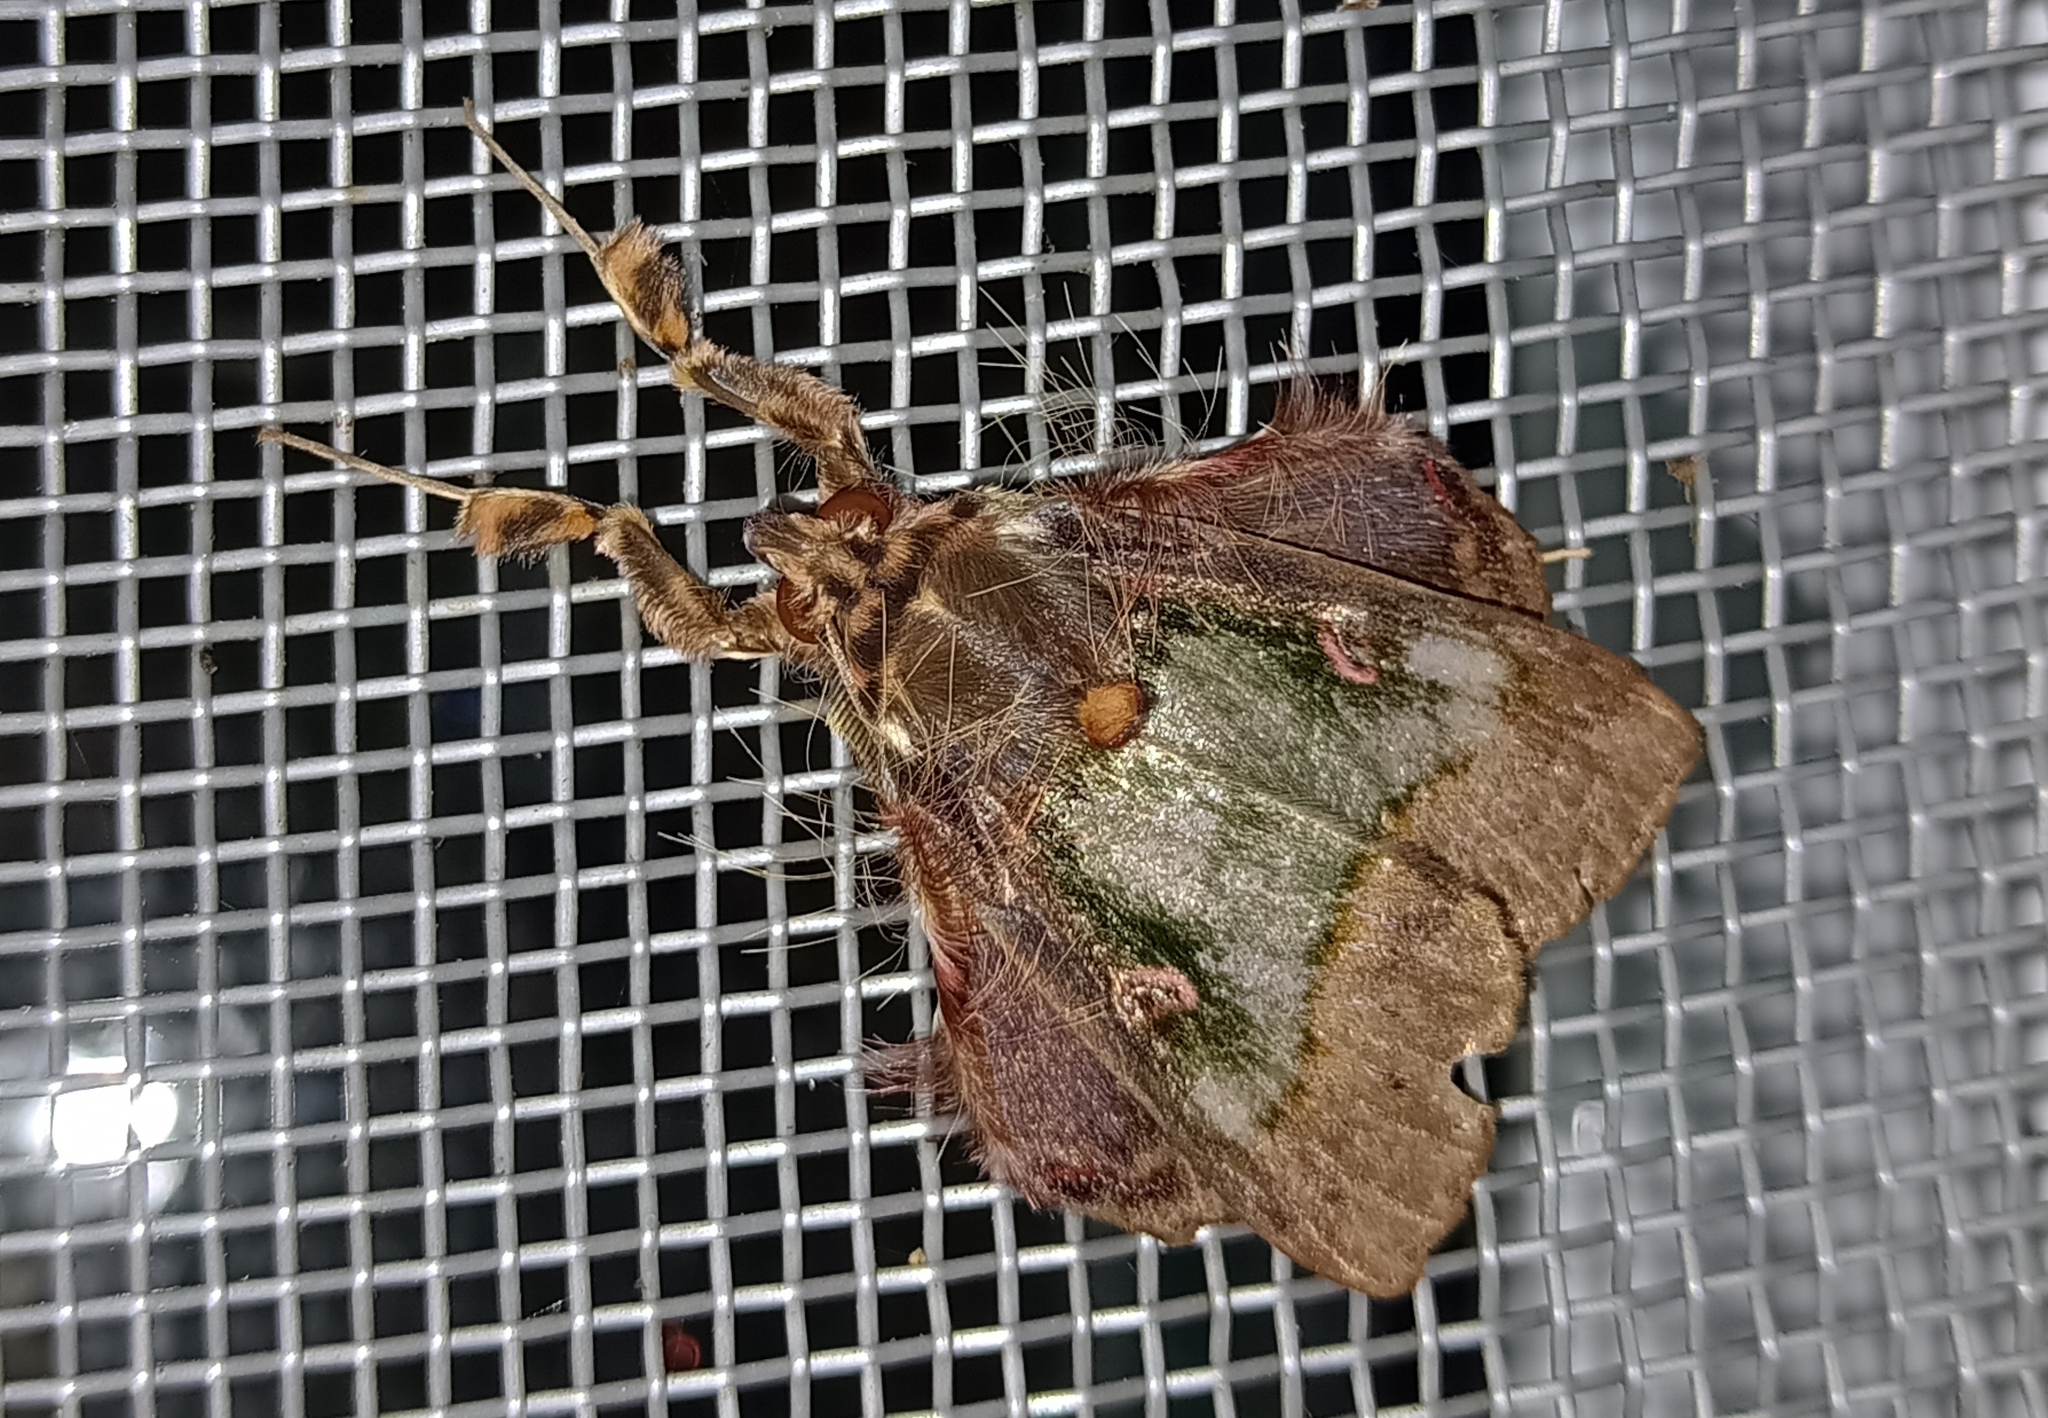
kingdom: Animalia
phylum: Arthropoda
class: Insecta
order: Lepidoptera
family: Erebidae
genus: Ceroctena
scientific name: Ceroctena amynta
